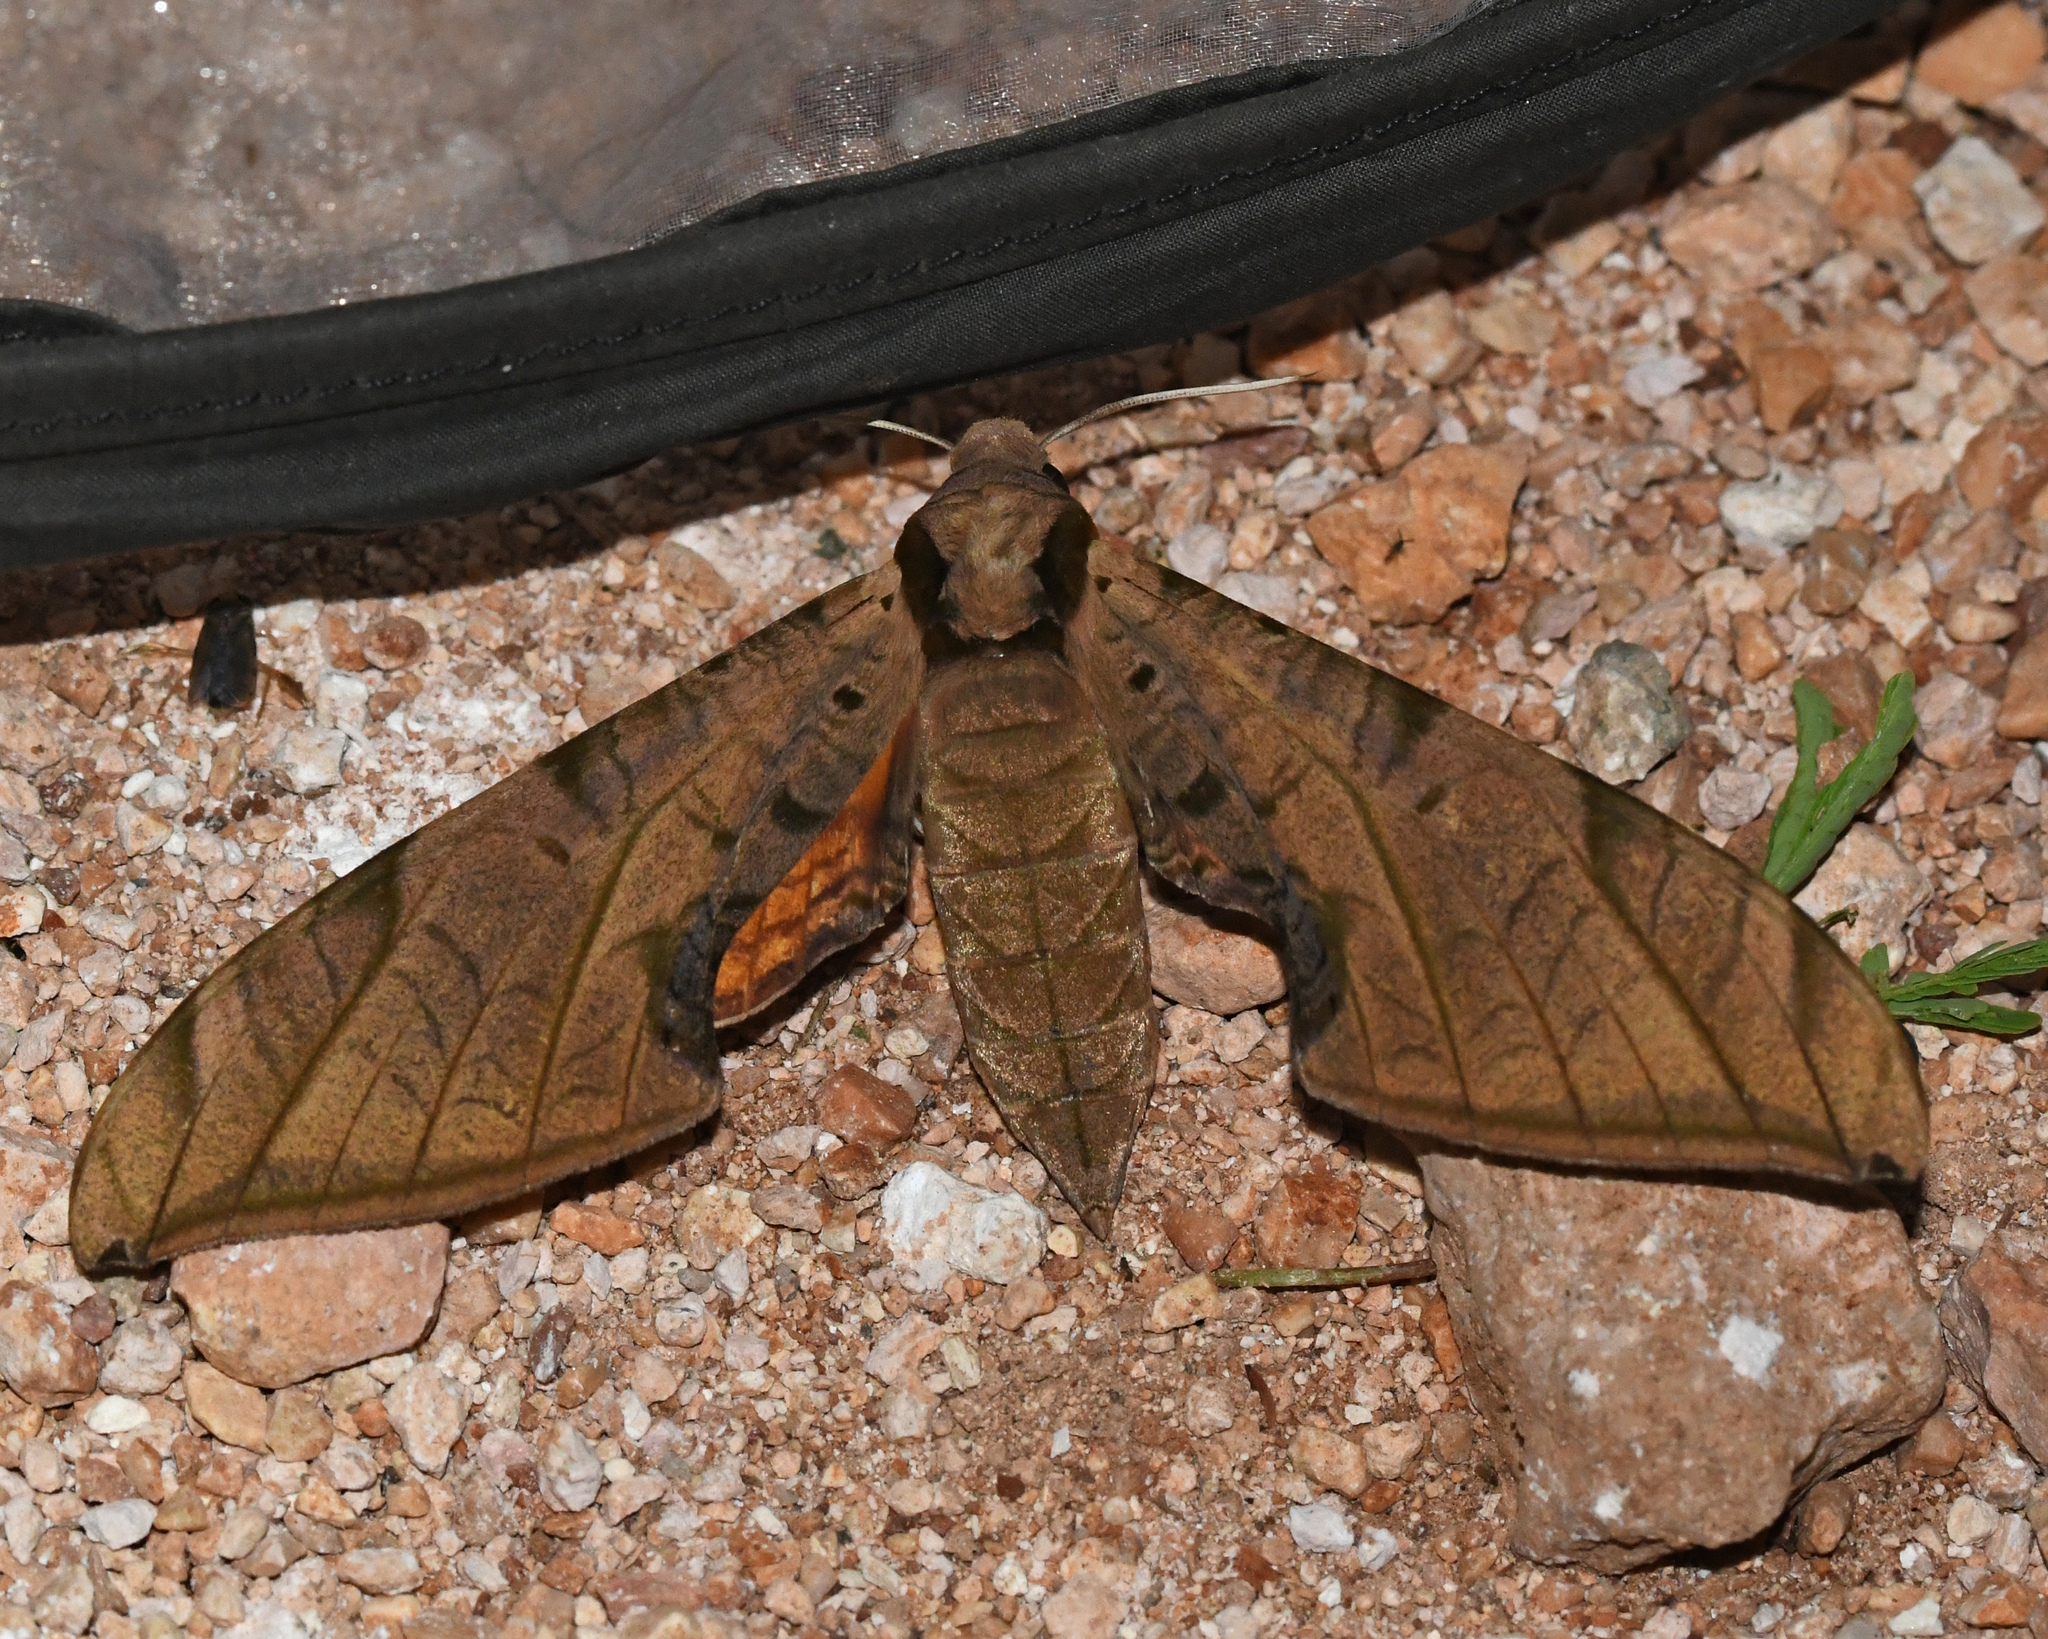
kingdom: Animalia
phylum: Arthropoda
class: Insecta
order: Lepidoptera
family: Sphingidae
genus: Protambulyx
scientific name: Protambulyx strigilis
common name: Streaked sphinx
